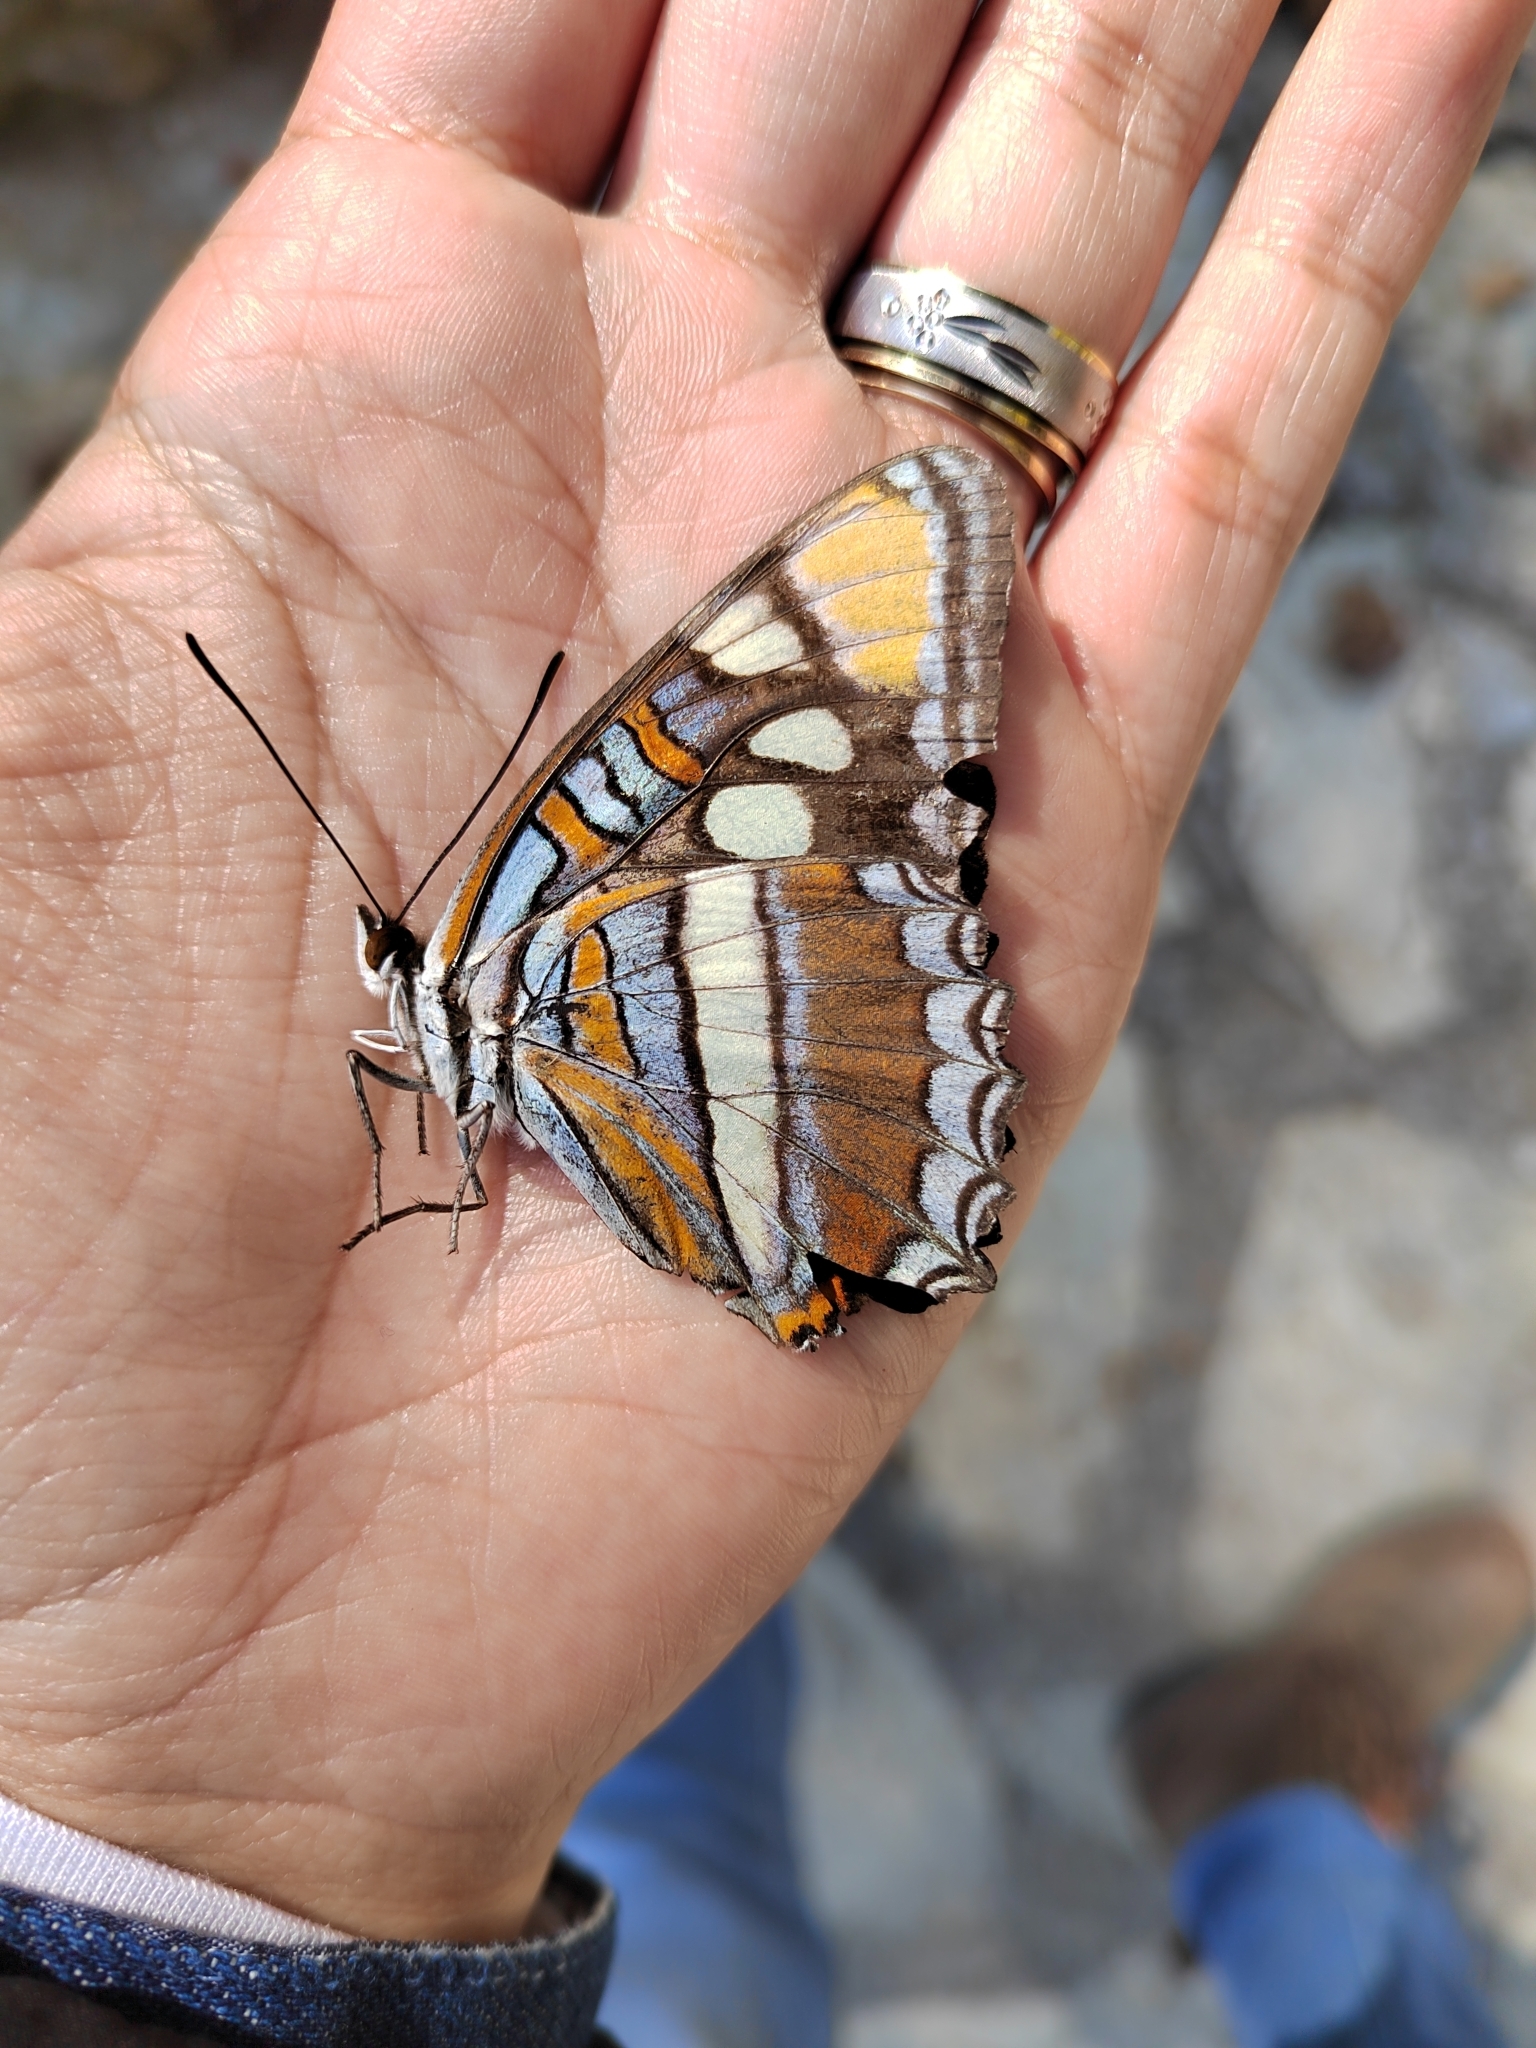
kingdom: Animalia
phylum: Arthropoda
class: Insecta
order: Lepidoptera
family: Nymphalidae
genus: Limenitis
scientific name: Limenitis bredowii
